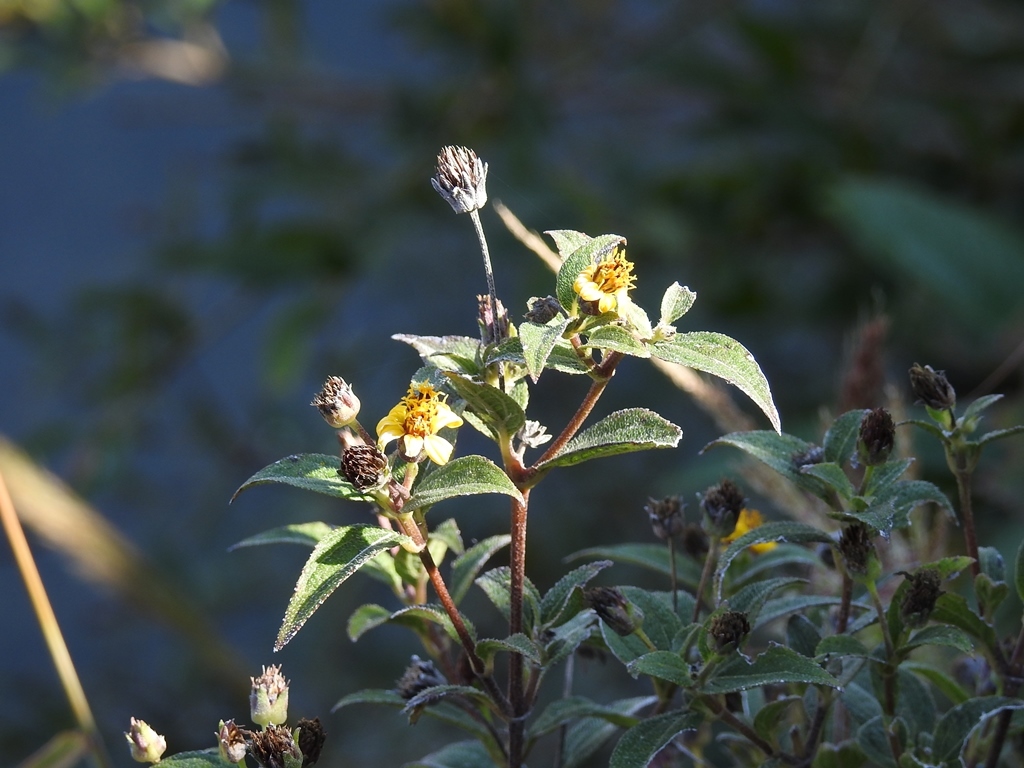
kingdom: Plantae
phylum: Tracheophyta
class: Magnoliopsida
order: Asterales
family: Asteraceae
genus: Calea
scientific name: Calea urticifolia
